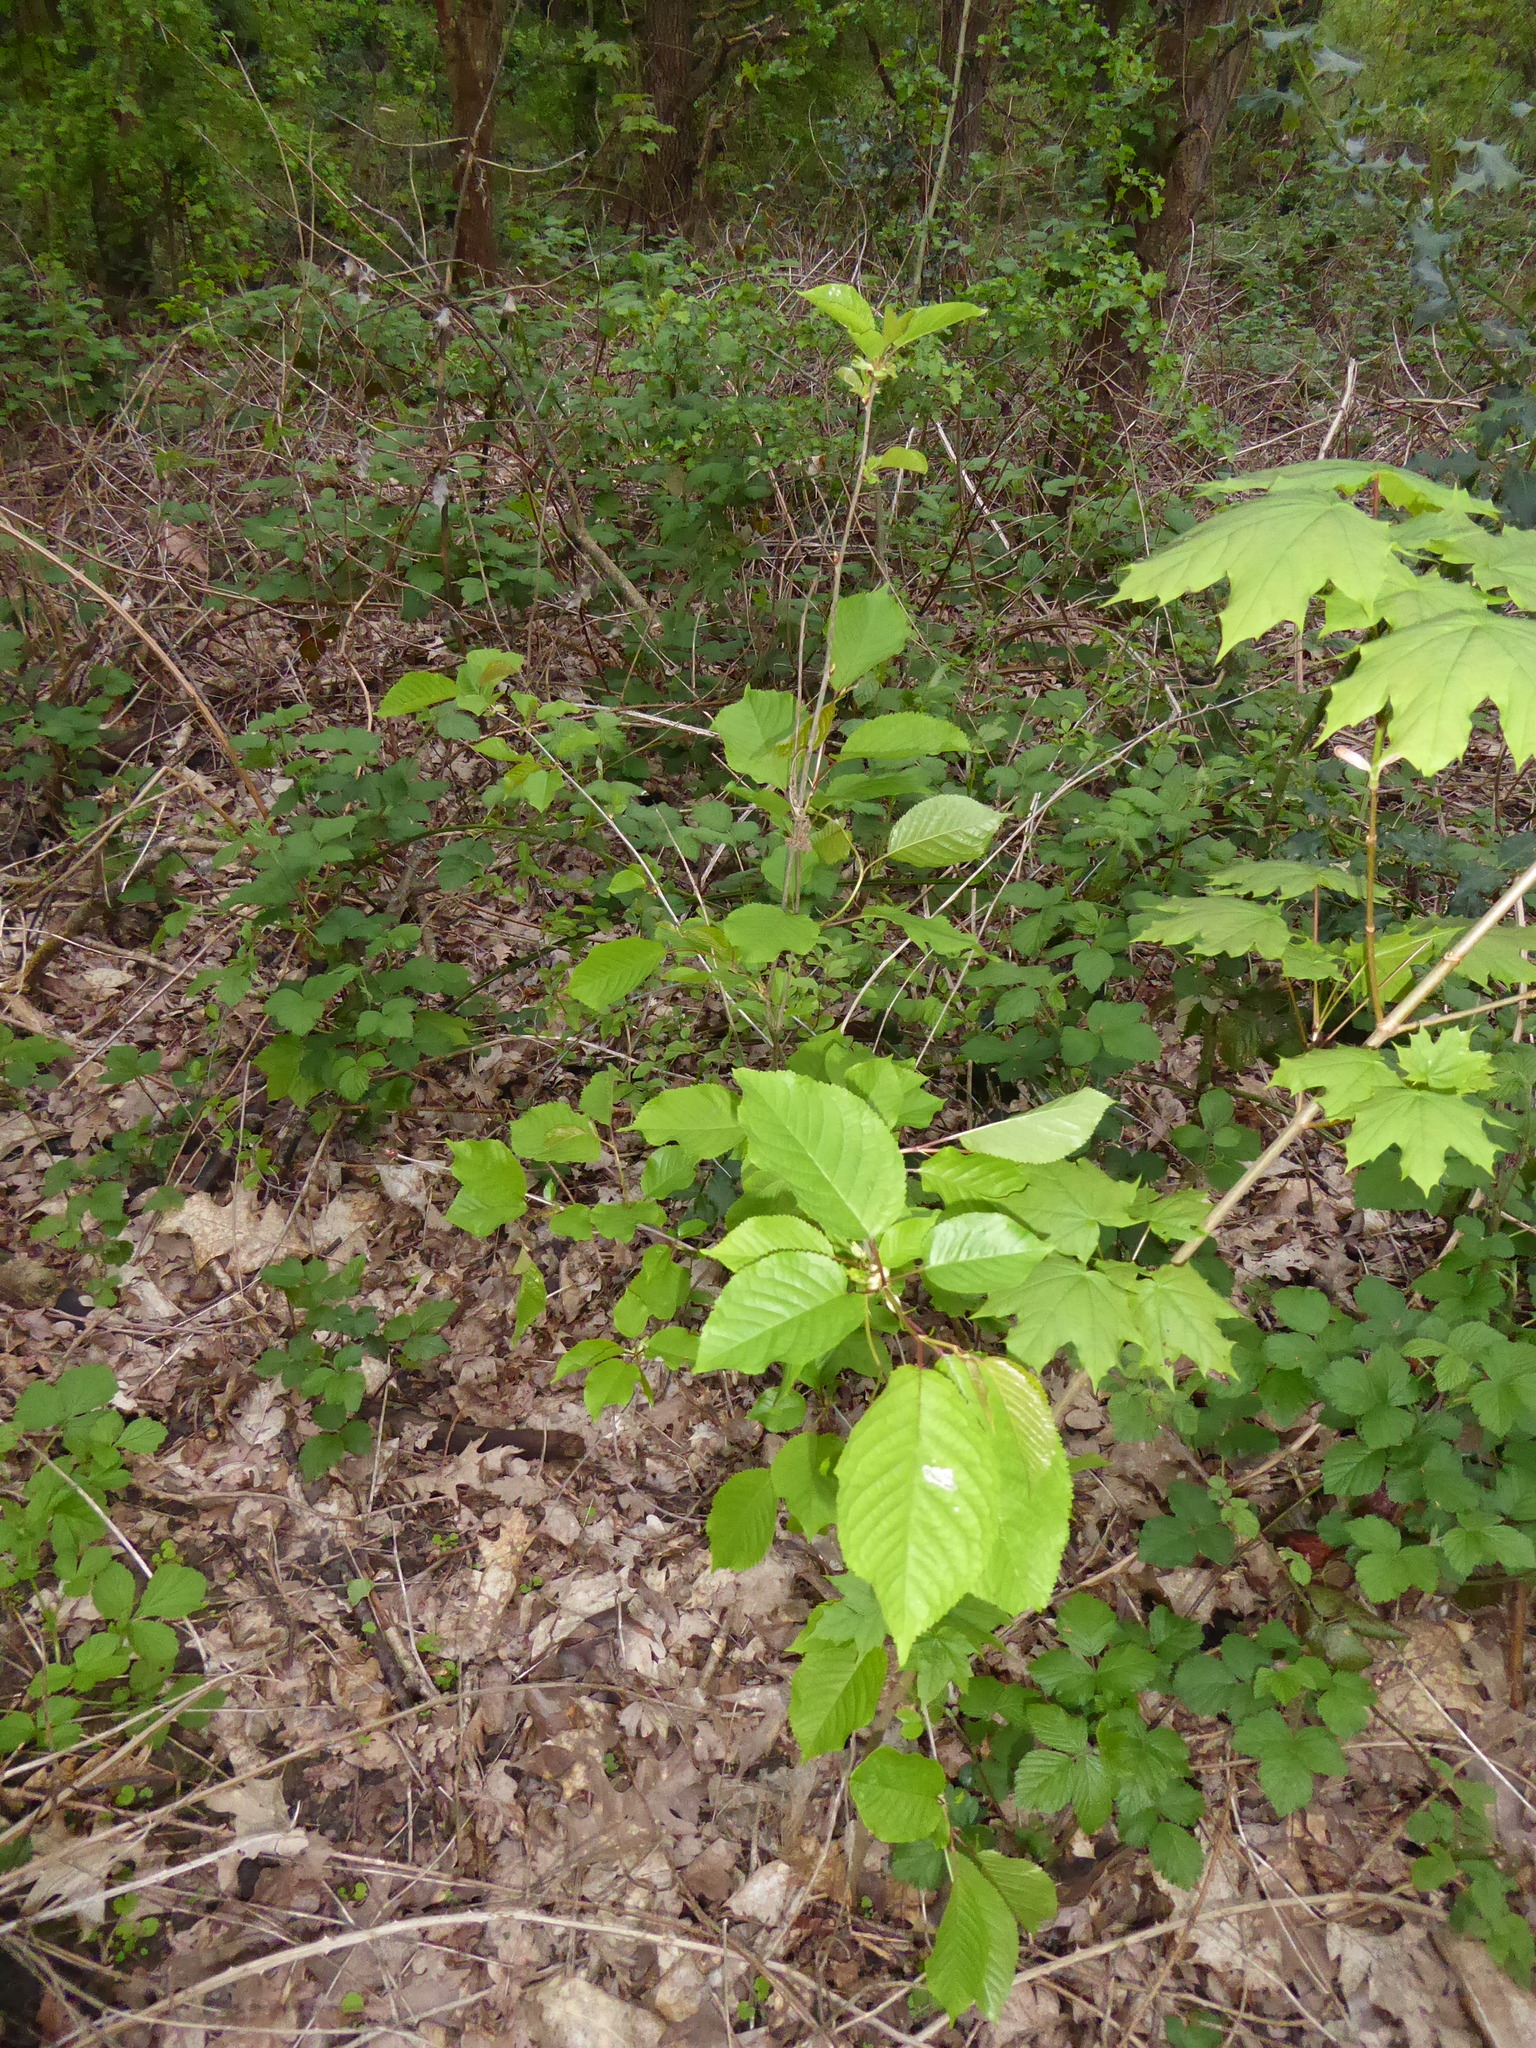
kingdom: Plantae
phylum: Tracheophyta
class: Magnoliopsida
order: Rosales
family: Rosaceae
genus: Prunus
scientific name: Prunus avium
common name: Sweet cherry
